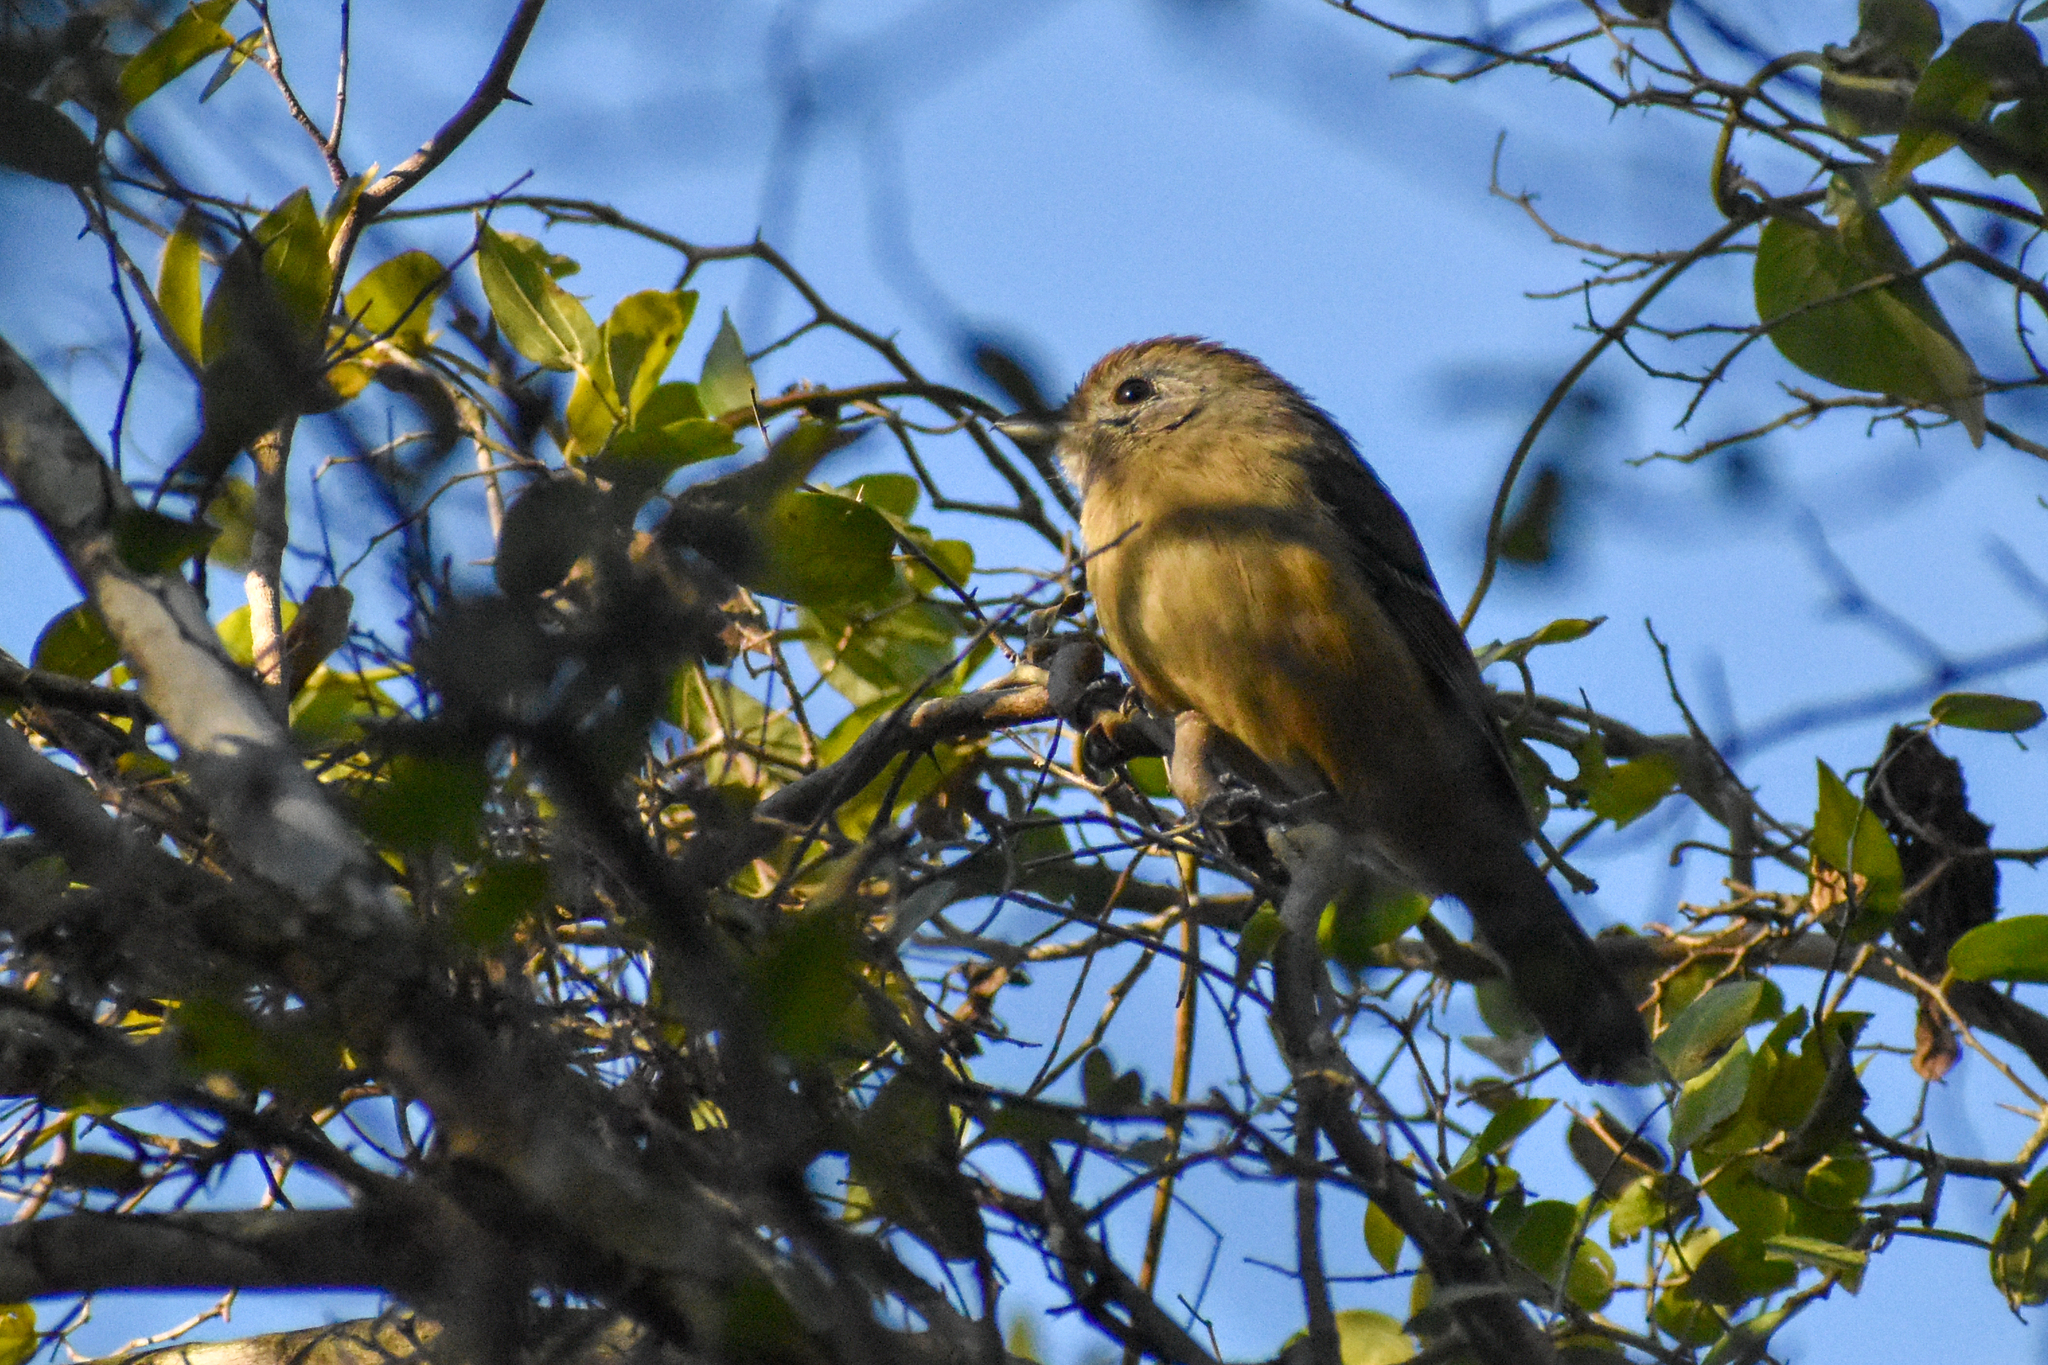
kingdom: Animalia
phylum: Chordata
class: Aves
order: Passeriformes
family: Thamnophilidae
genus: Thamnophilus
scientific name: Thamnophilus caerulescens
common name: Variable antshrike
